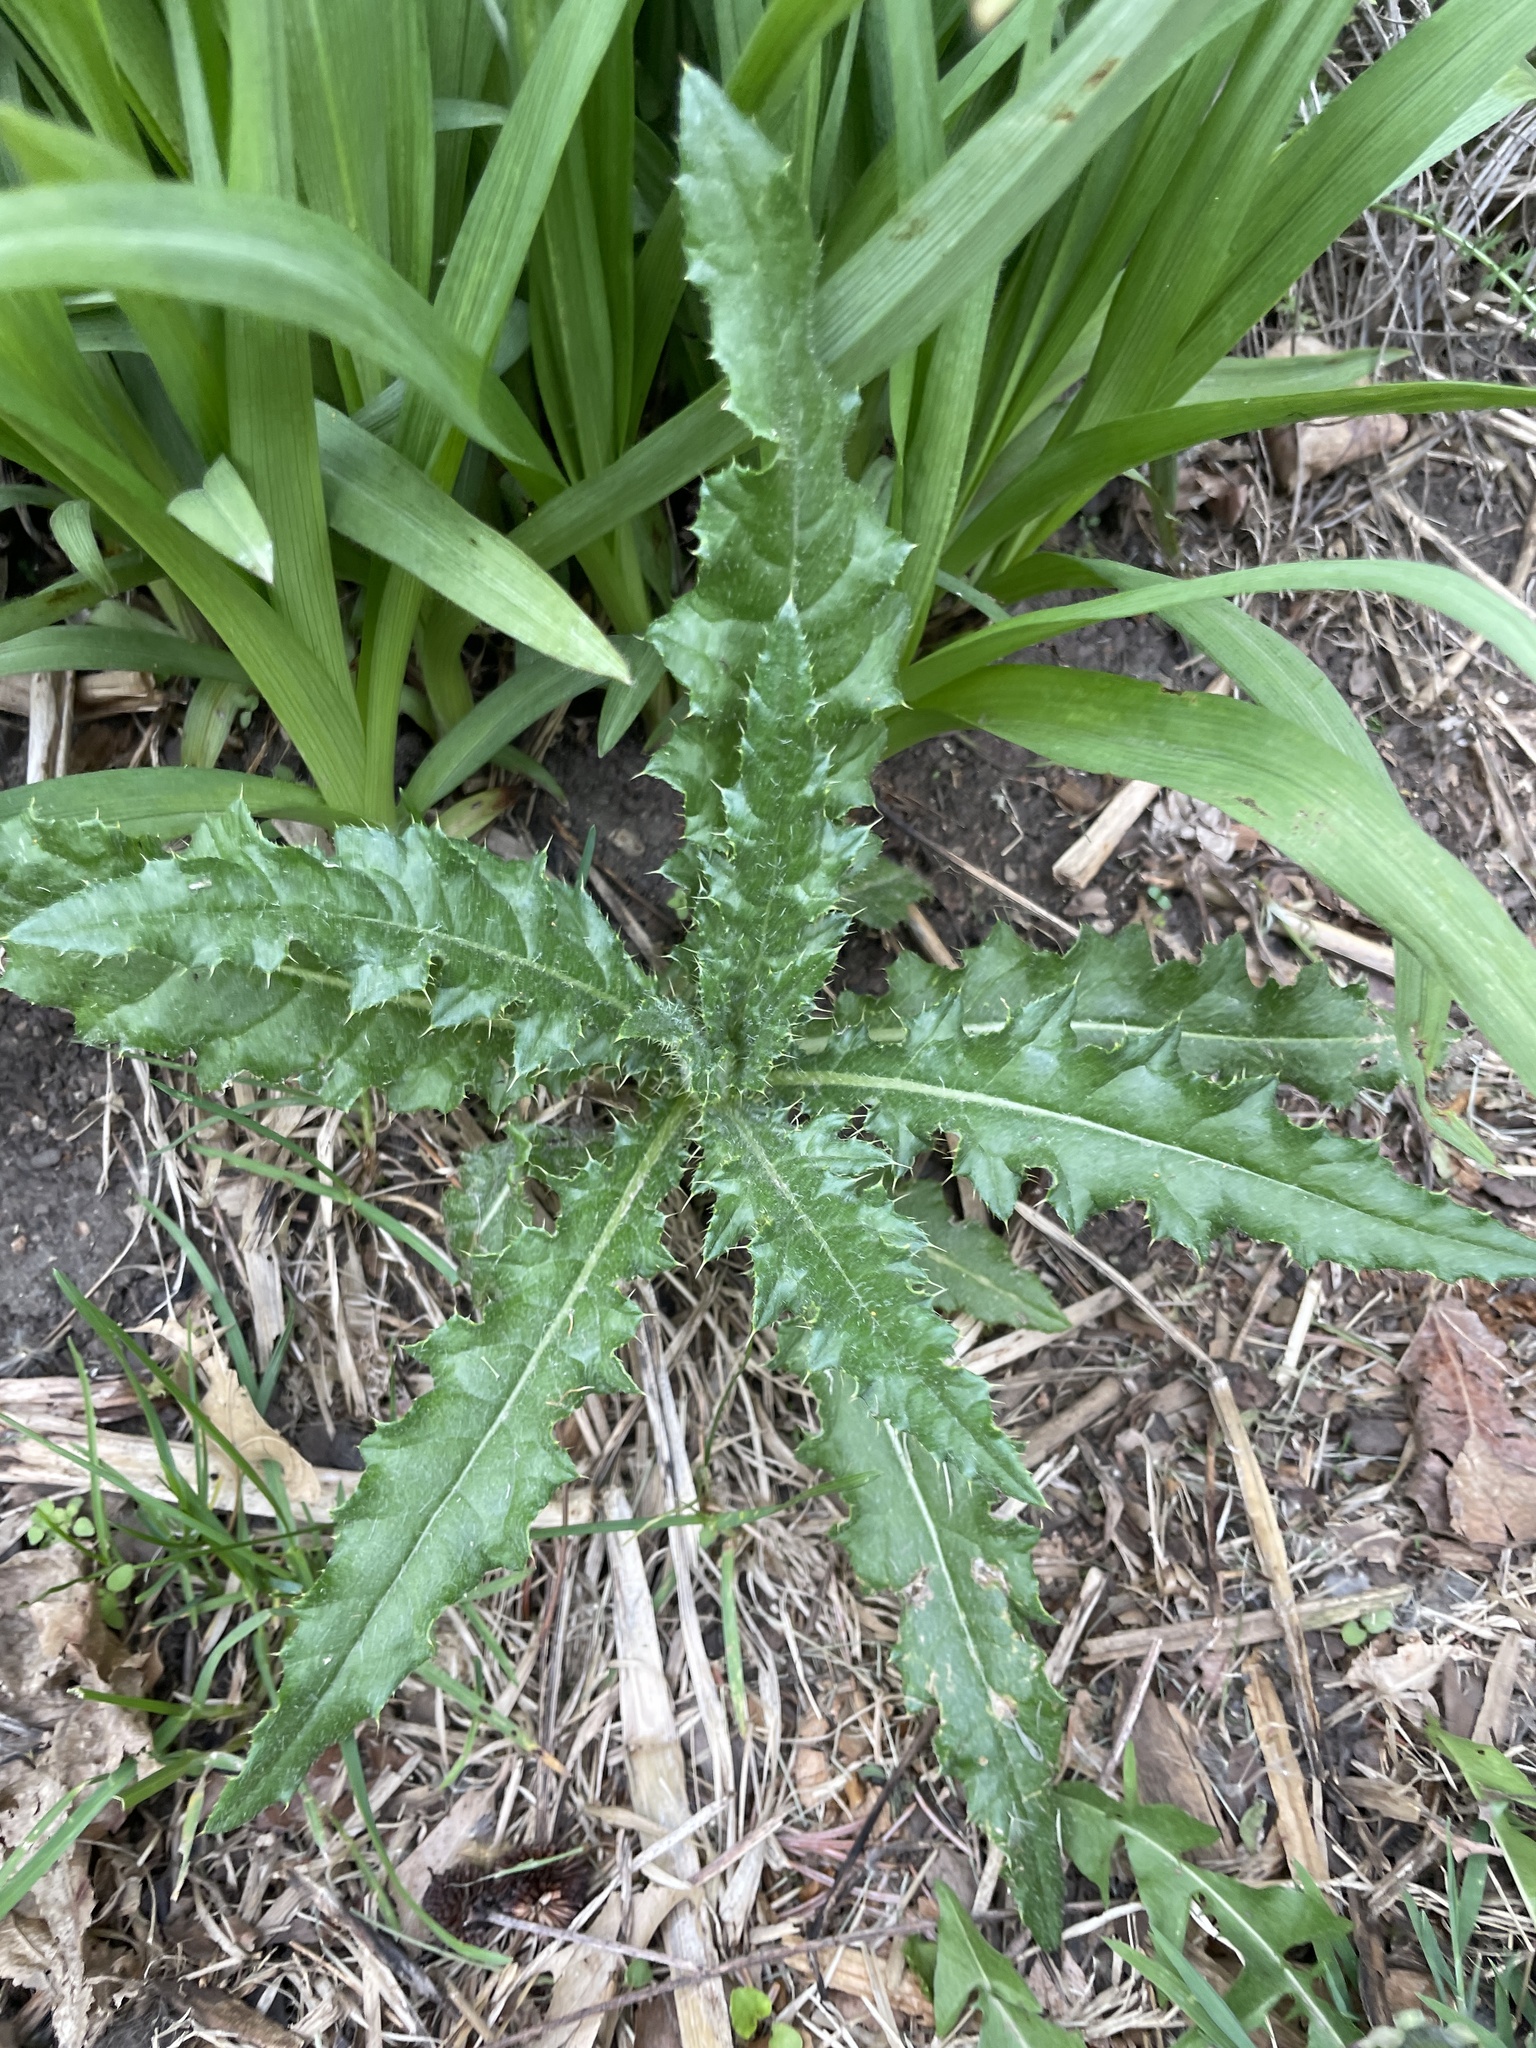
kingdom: Plantae
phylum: Tracheophyta
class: Magnoliopsida
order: Asterales
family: Asteraceae
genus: Cirsium
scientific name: Cirsium arvense
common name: Creeping thistle
